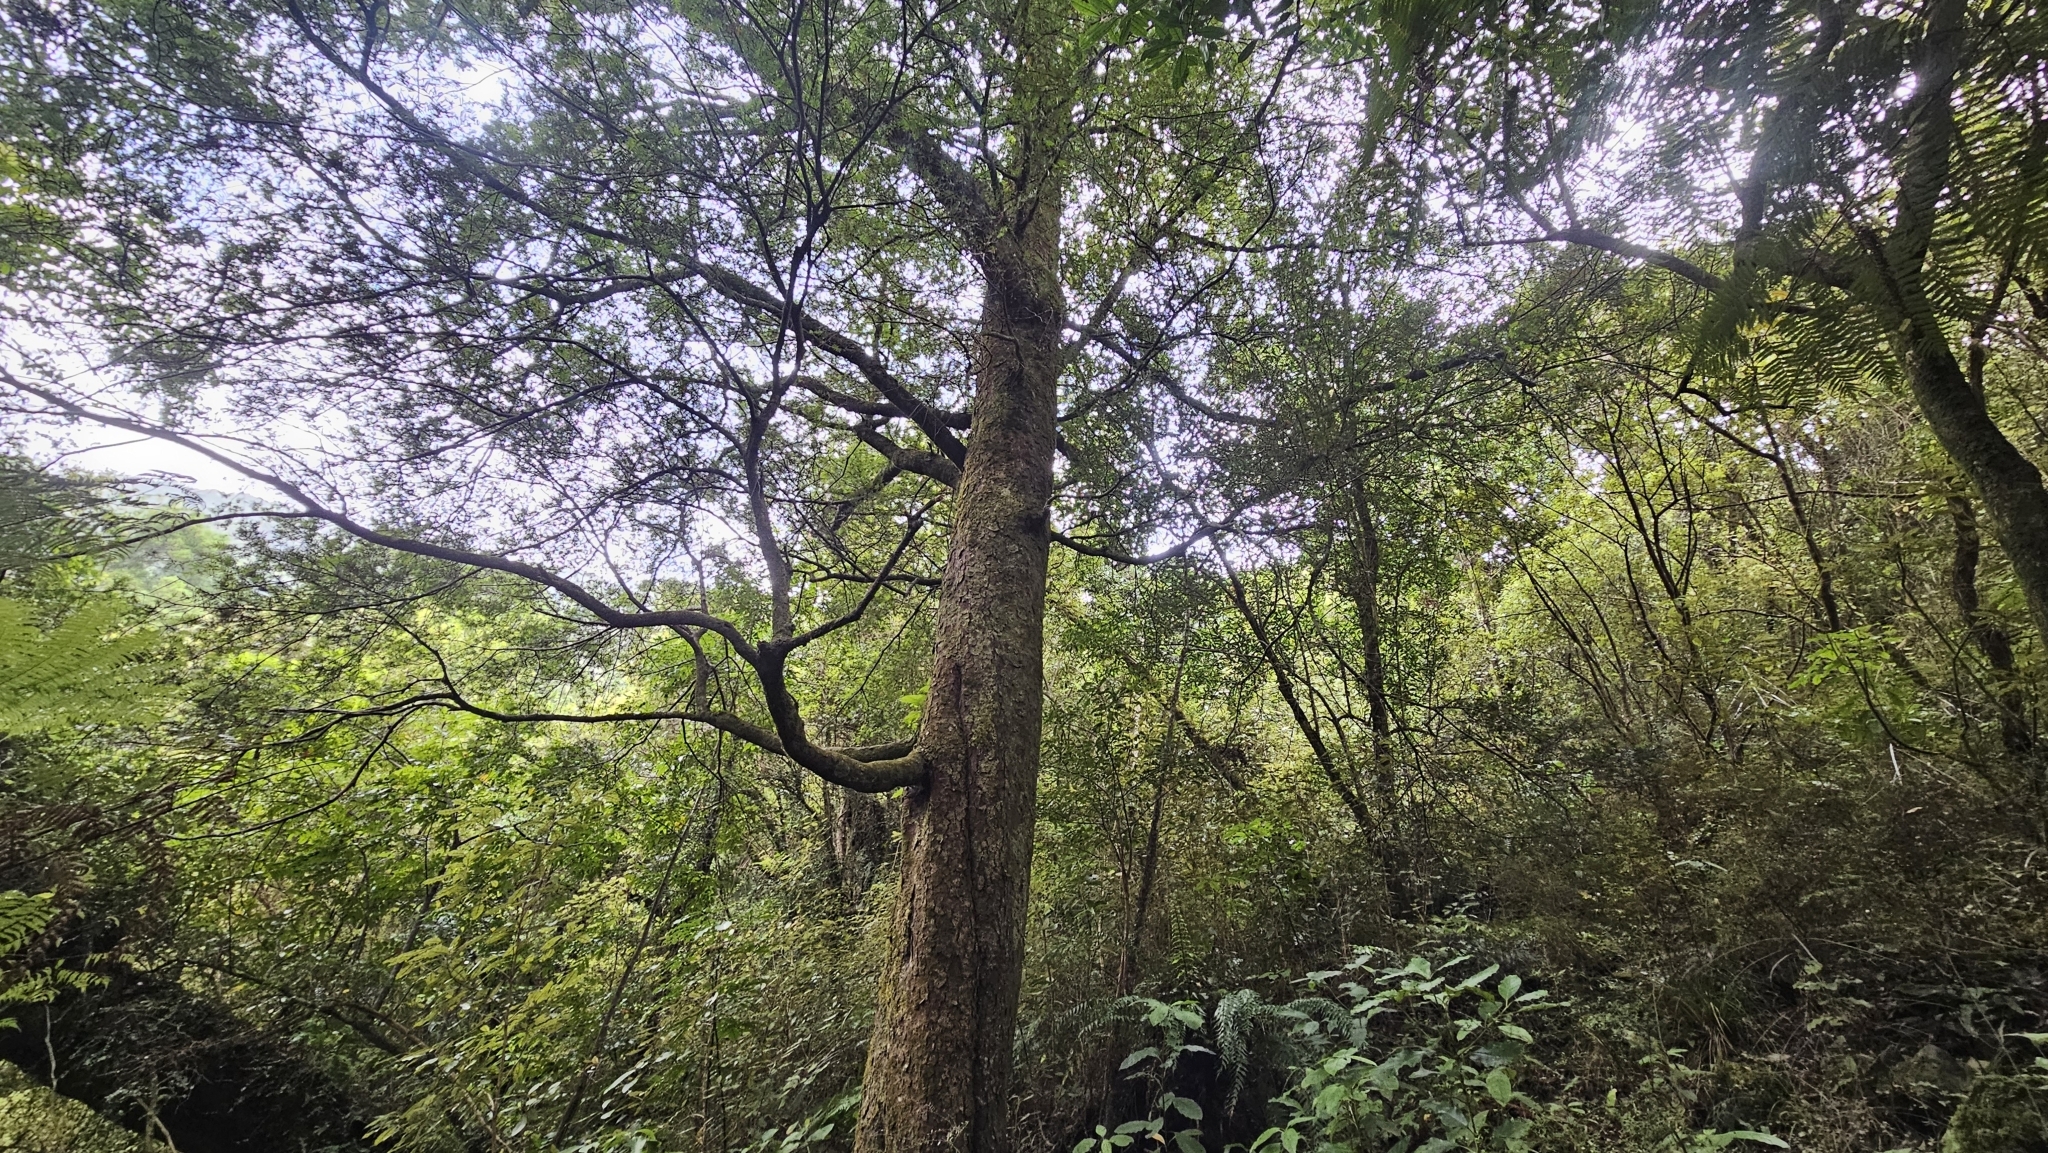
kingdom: Plantae
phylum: Tracheophyta
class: Pinopsida
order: Pinales
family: Podocarpaceae
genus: Prumnopitys
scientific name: Prumnopitys ferruginea
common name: Brown pine
